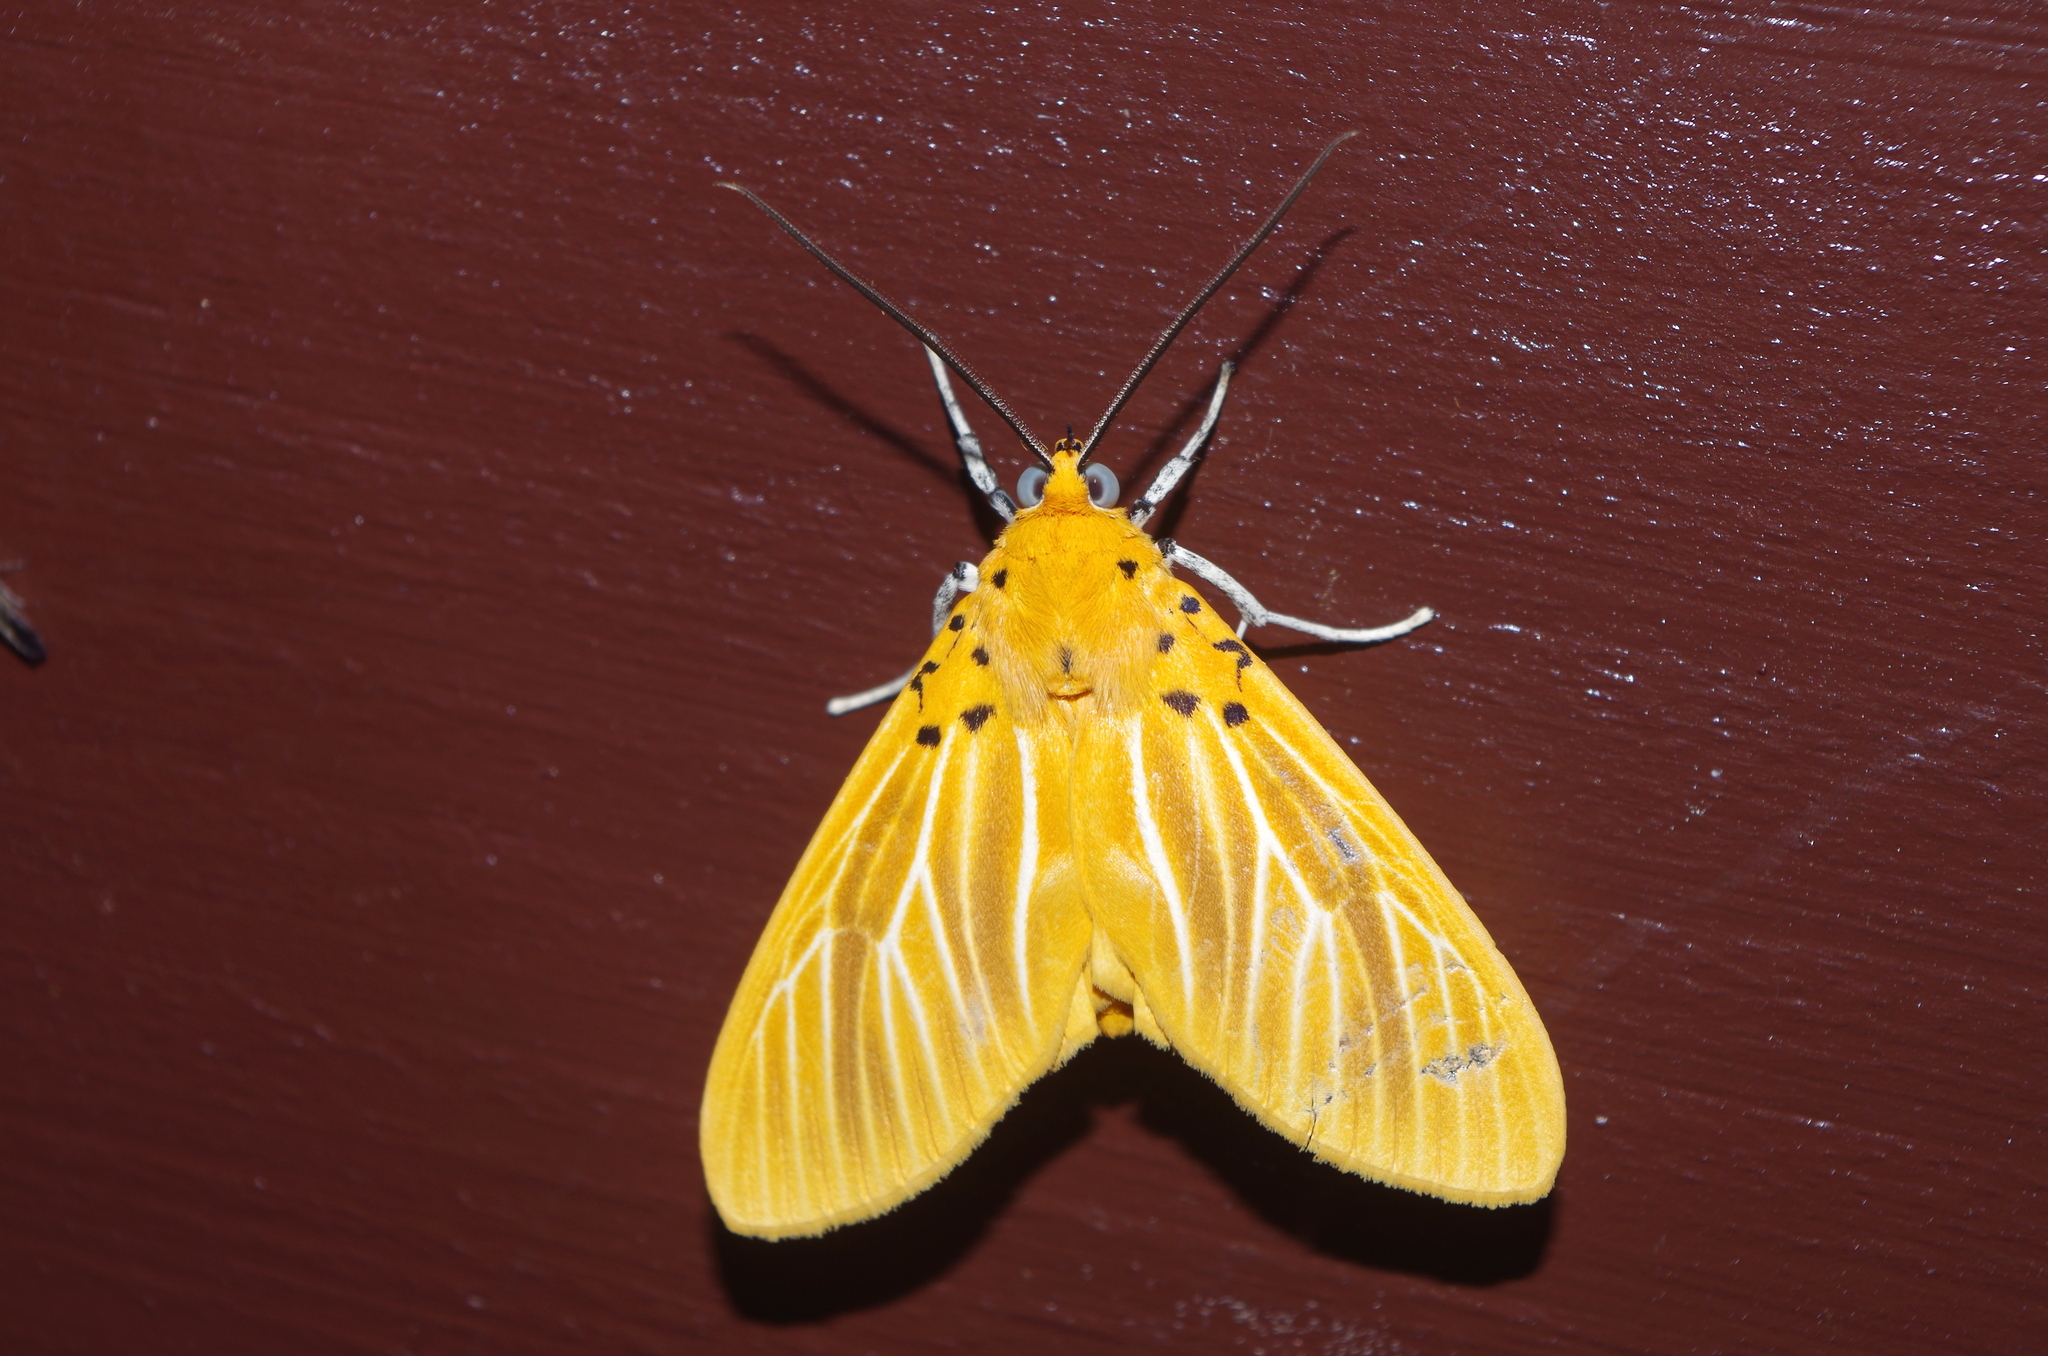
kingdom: Animalia
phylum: Arthropoda
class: Insecta
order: Lepidoptera
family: Erebidae
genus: Asota
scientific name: Asota egens
